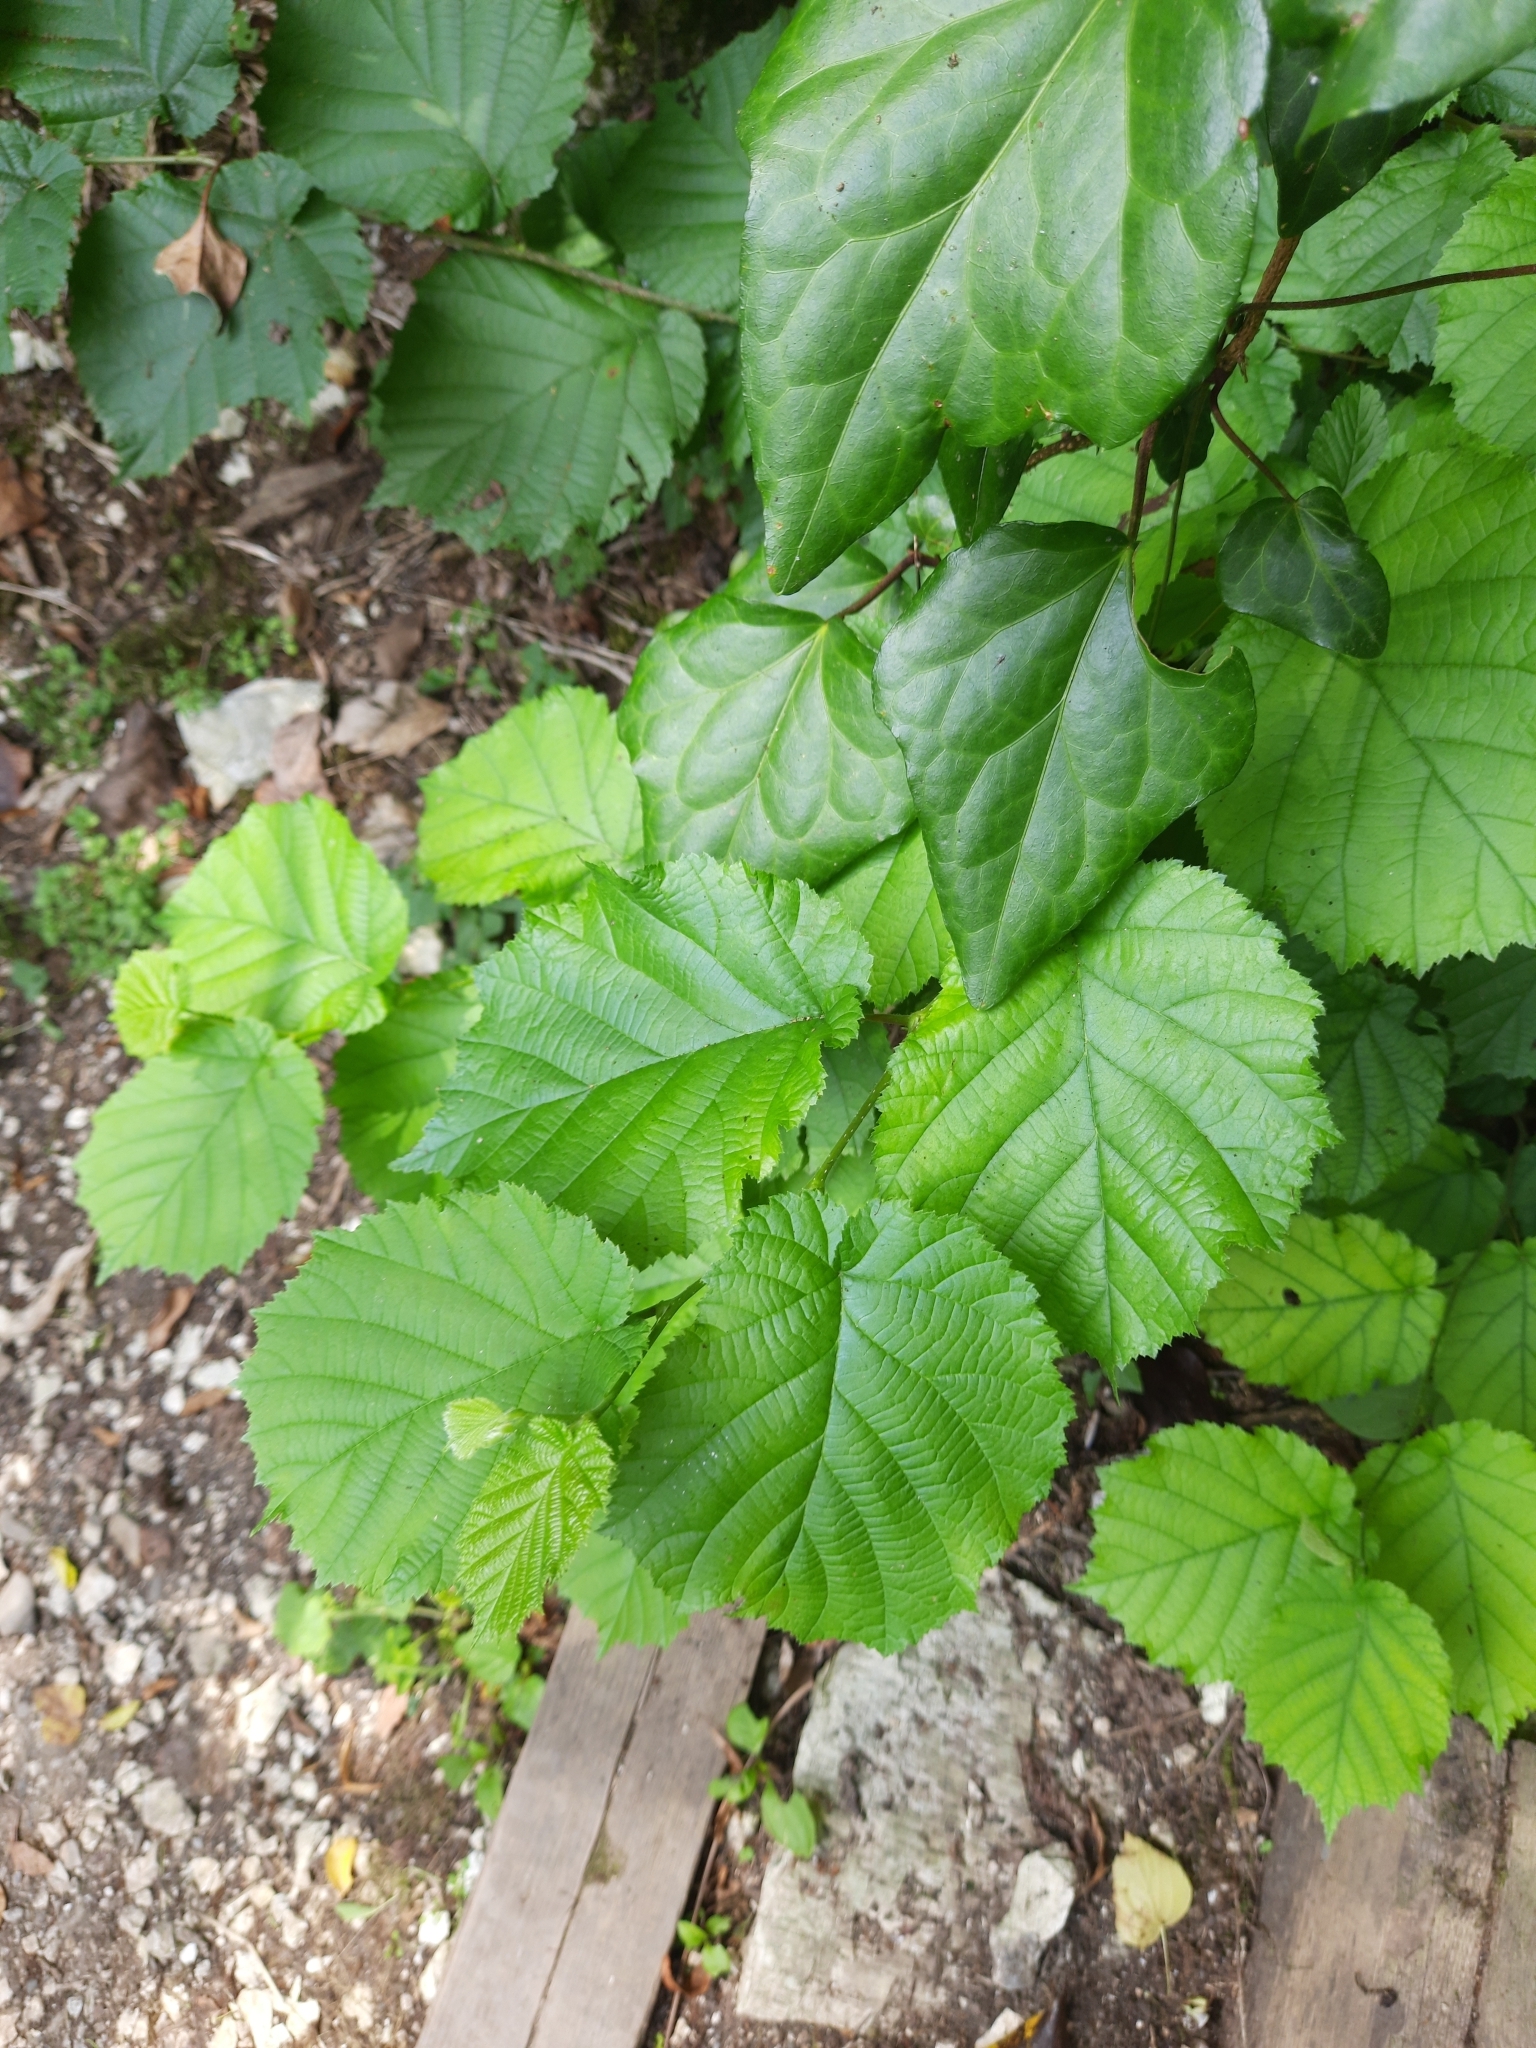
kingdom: Plantae
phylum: Tracheophyta
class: Magnoliopsida
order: Fagales
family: Betulaceae
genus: Corylus
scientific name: Corylus avellana
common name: European hazel
